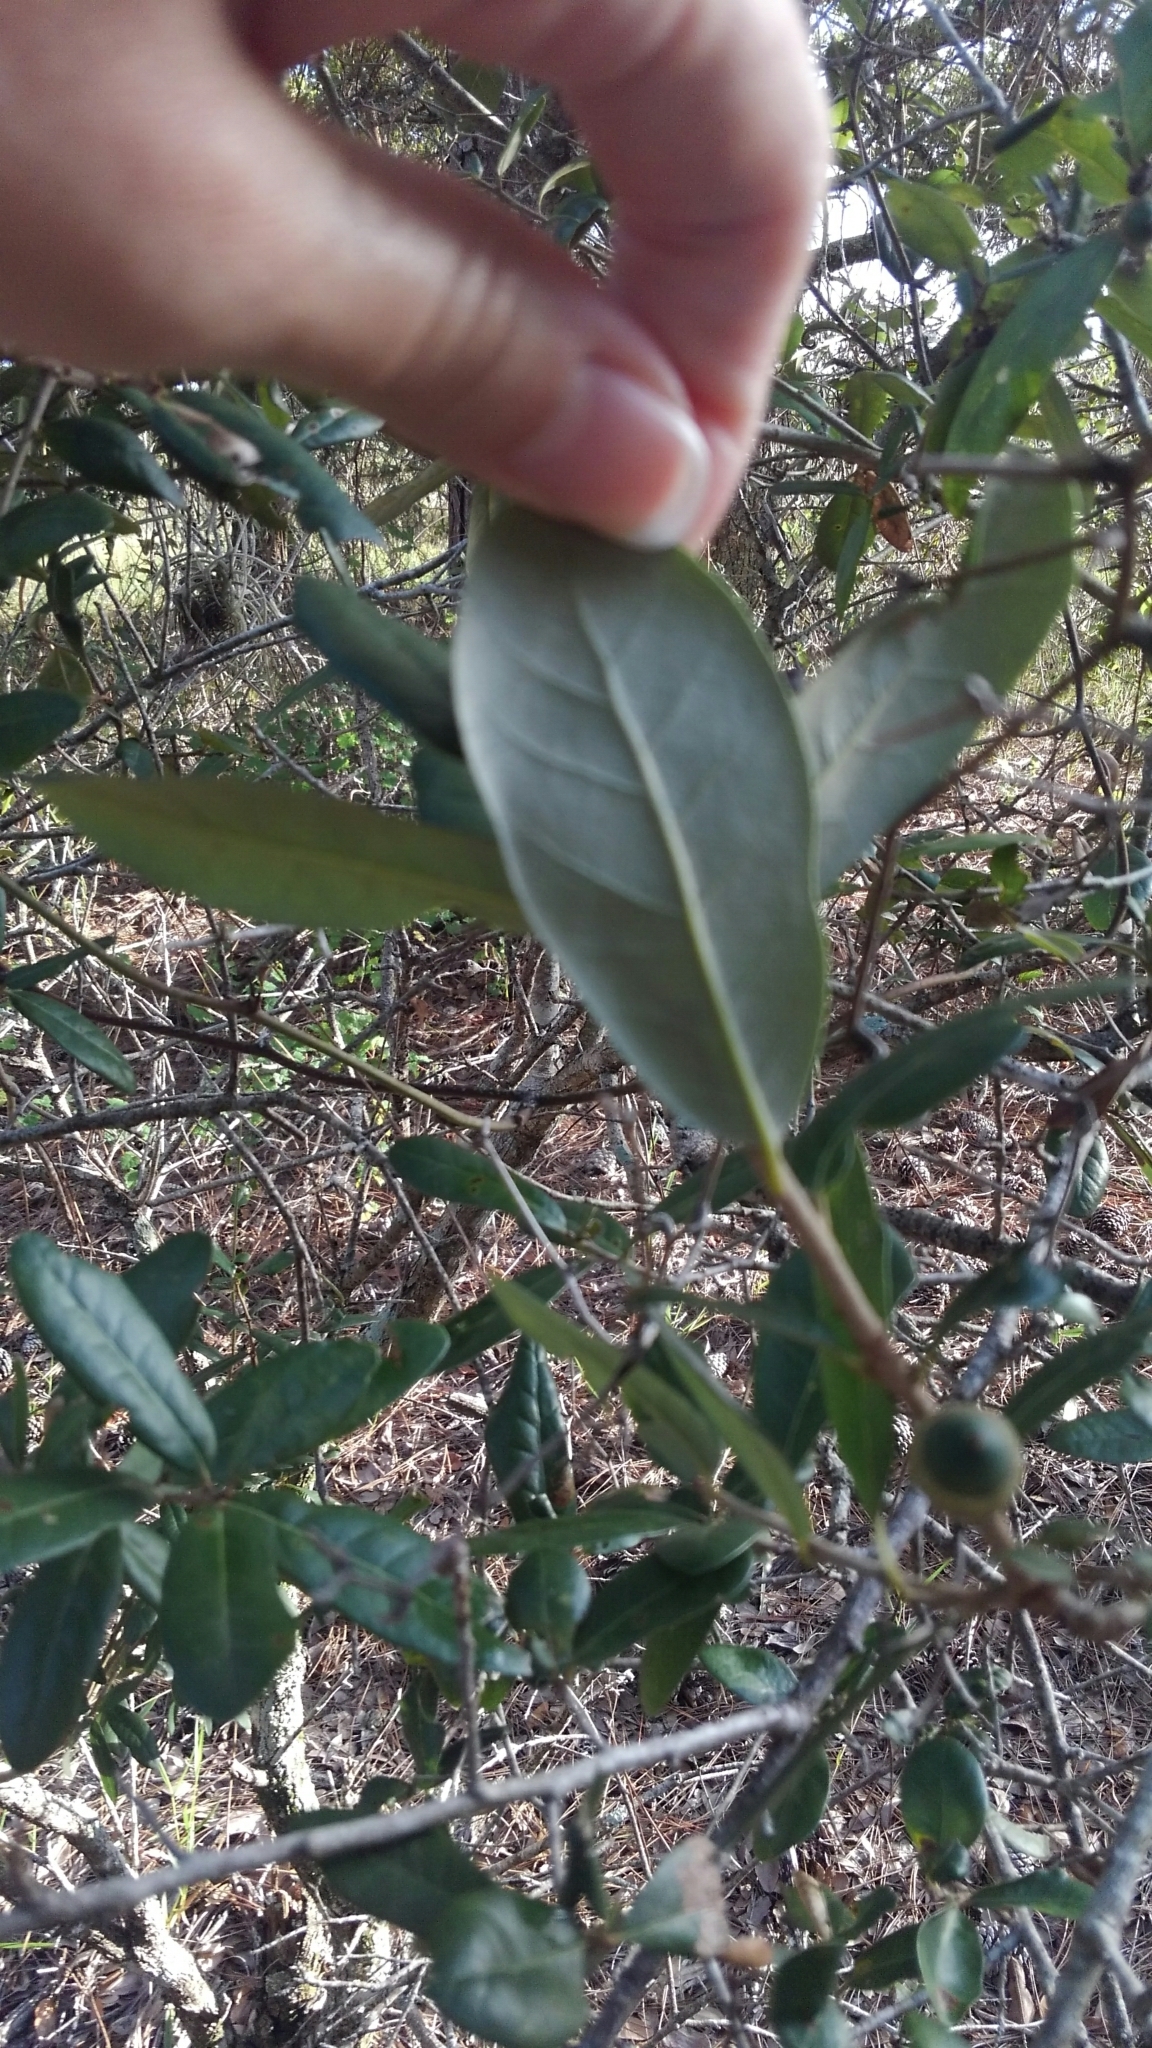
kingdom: Plantae
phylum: Tracheophyta
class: Magnoliopsida
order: Fagales
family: Fagaceae
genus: Quercus
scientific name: Quercus virginiana
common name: Southern live oak
